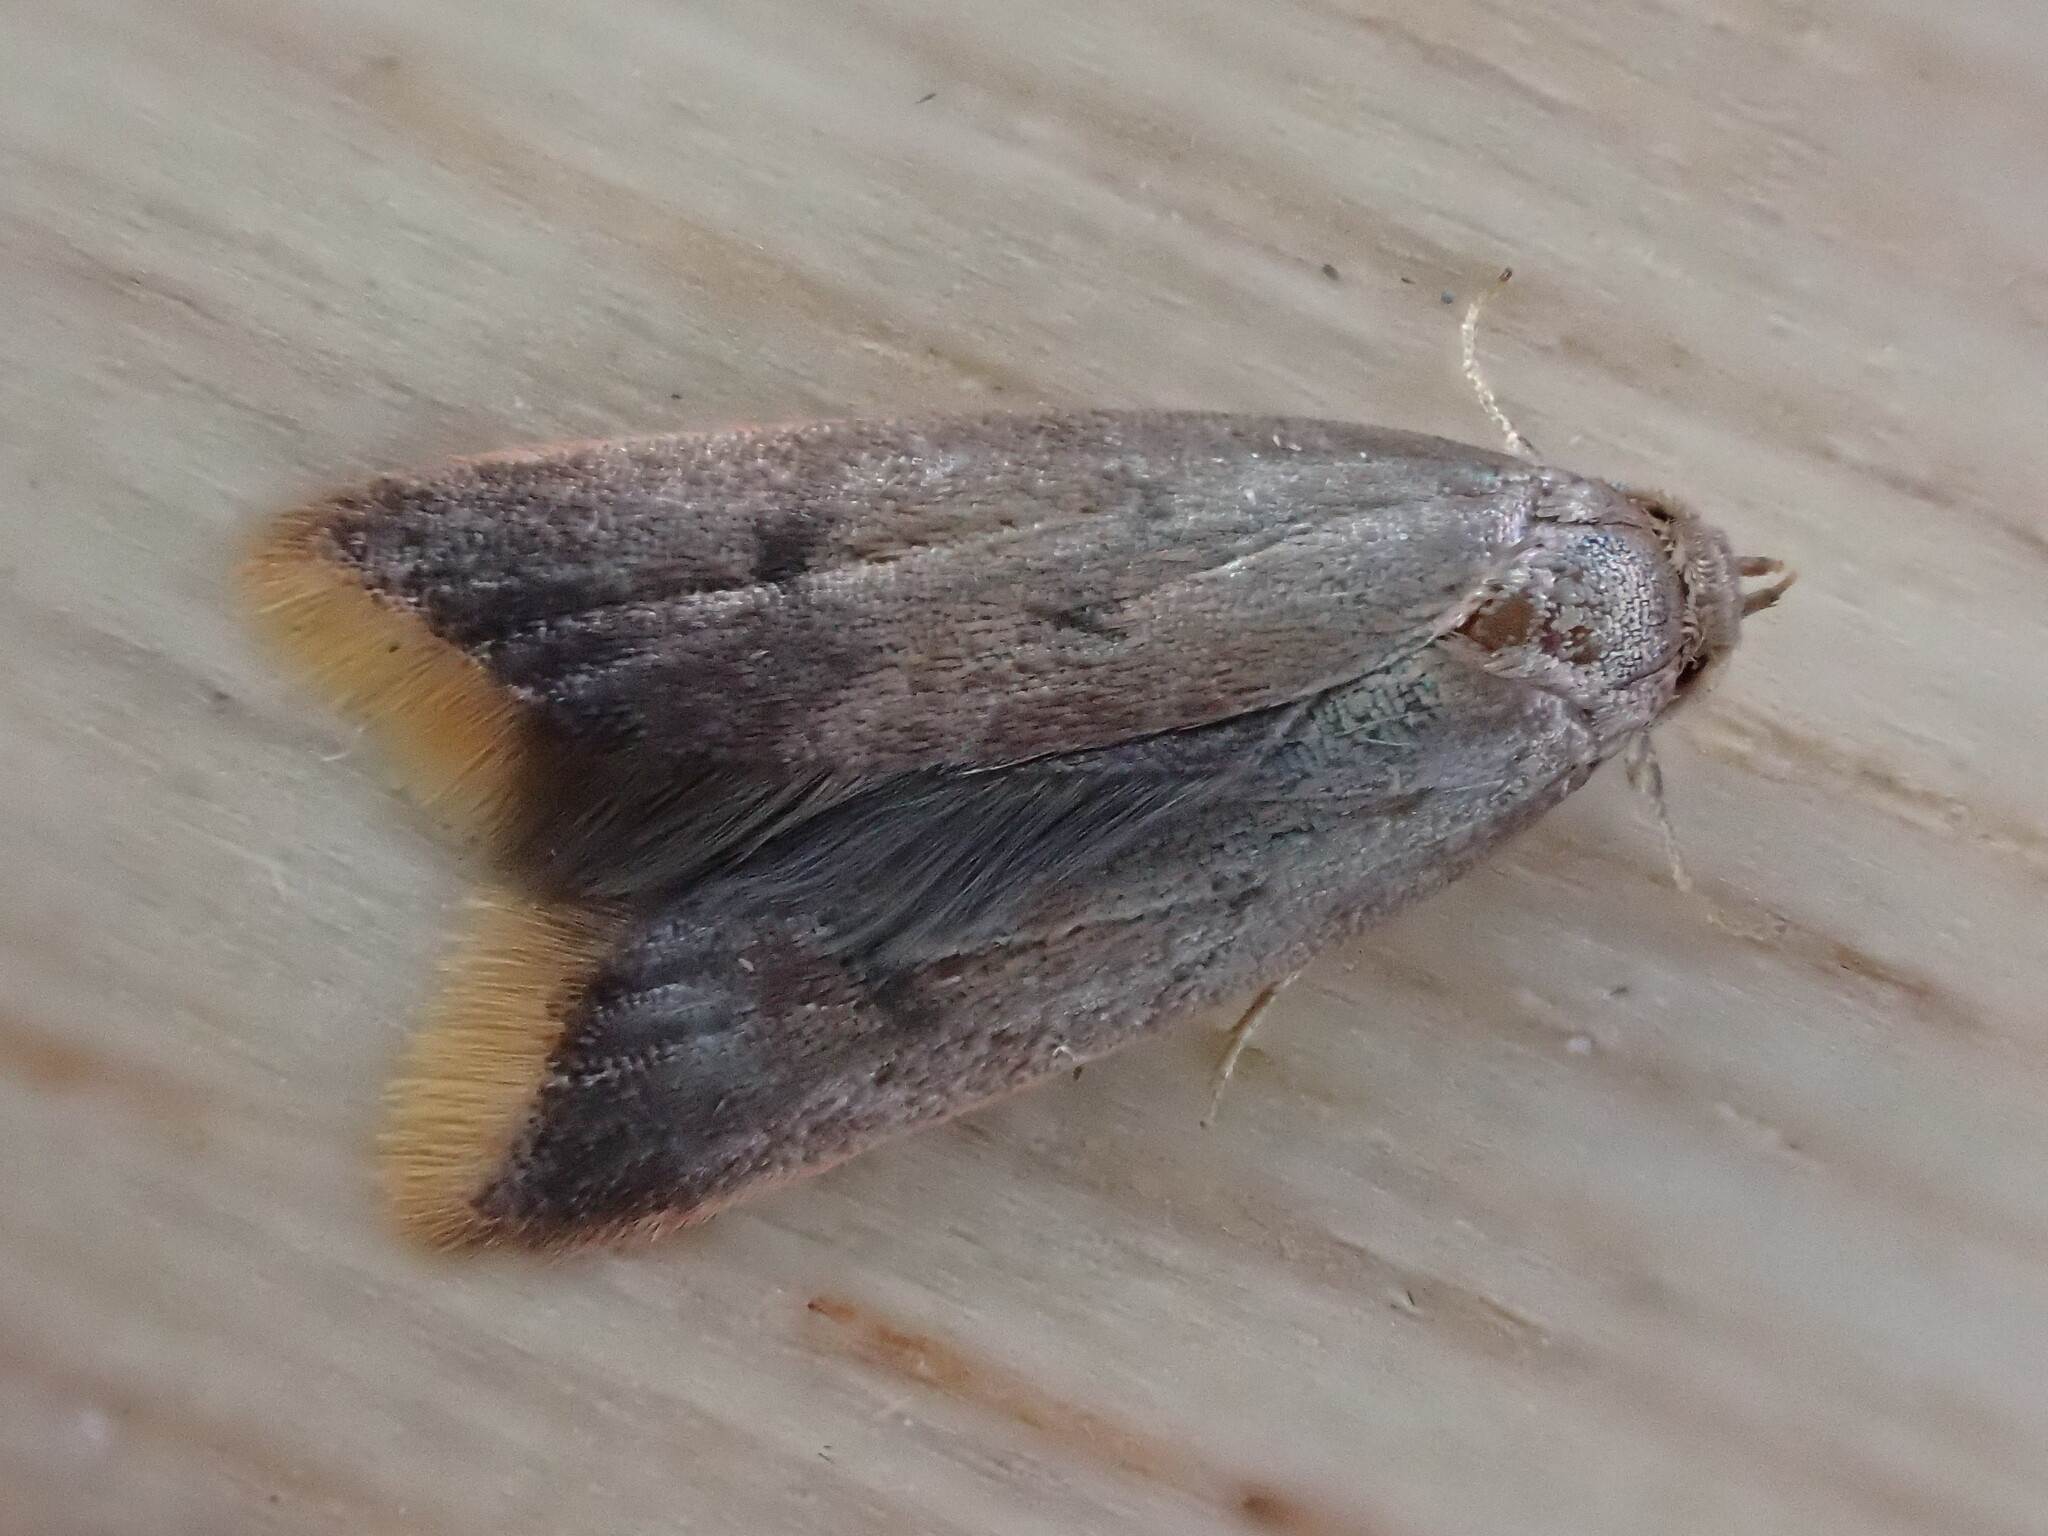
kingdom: Animalia
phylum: Arthropoda
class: Insecta
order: Lepidoptera
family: Oecophoridae
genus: Tachystola
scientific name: Tachystola acroxantha
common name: Ruddy streak
